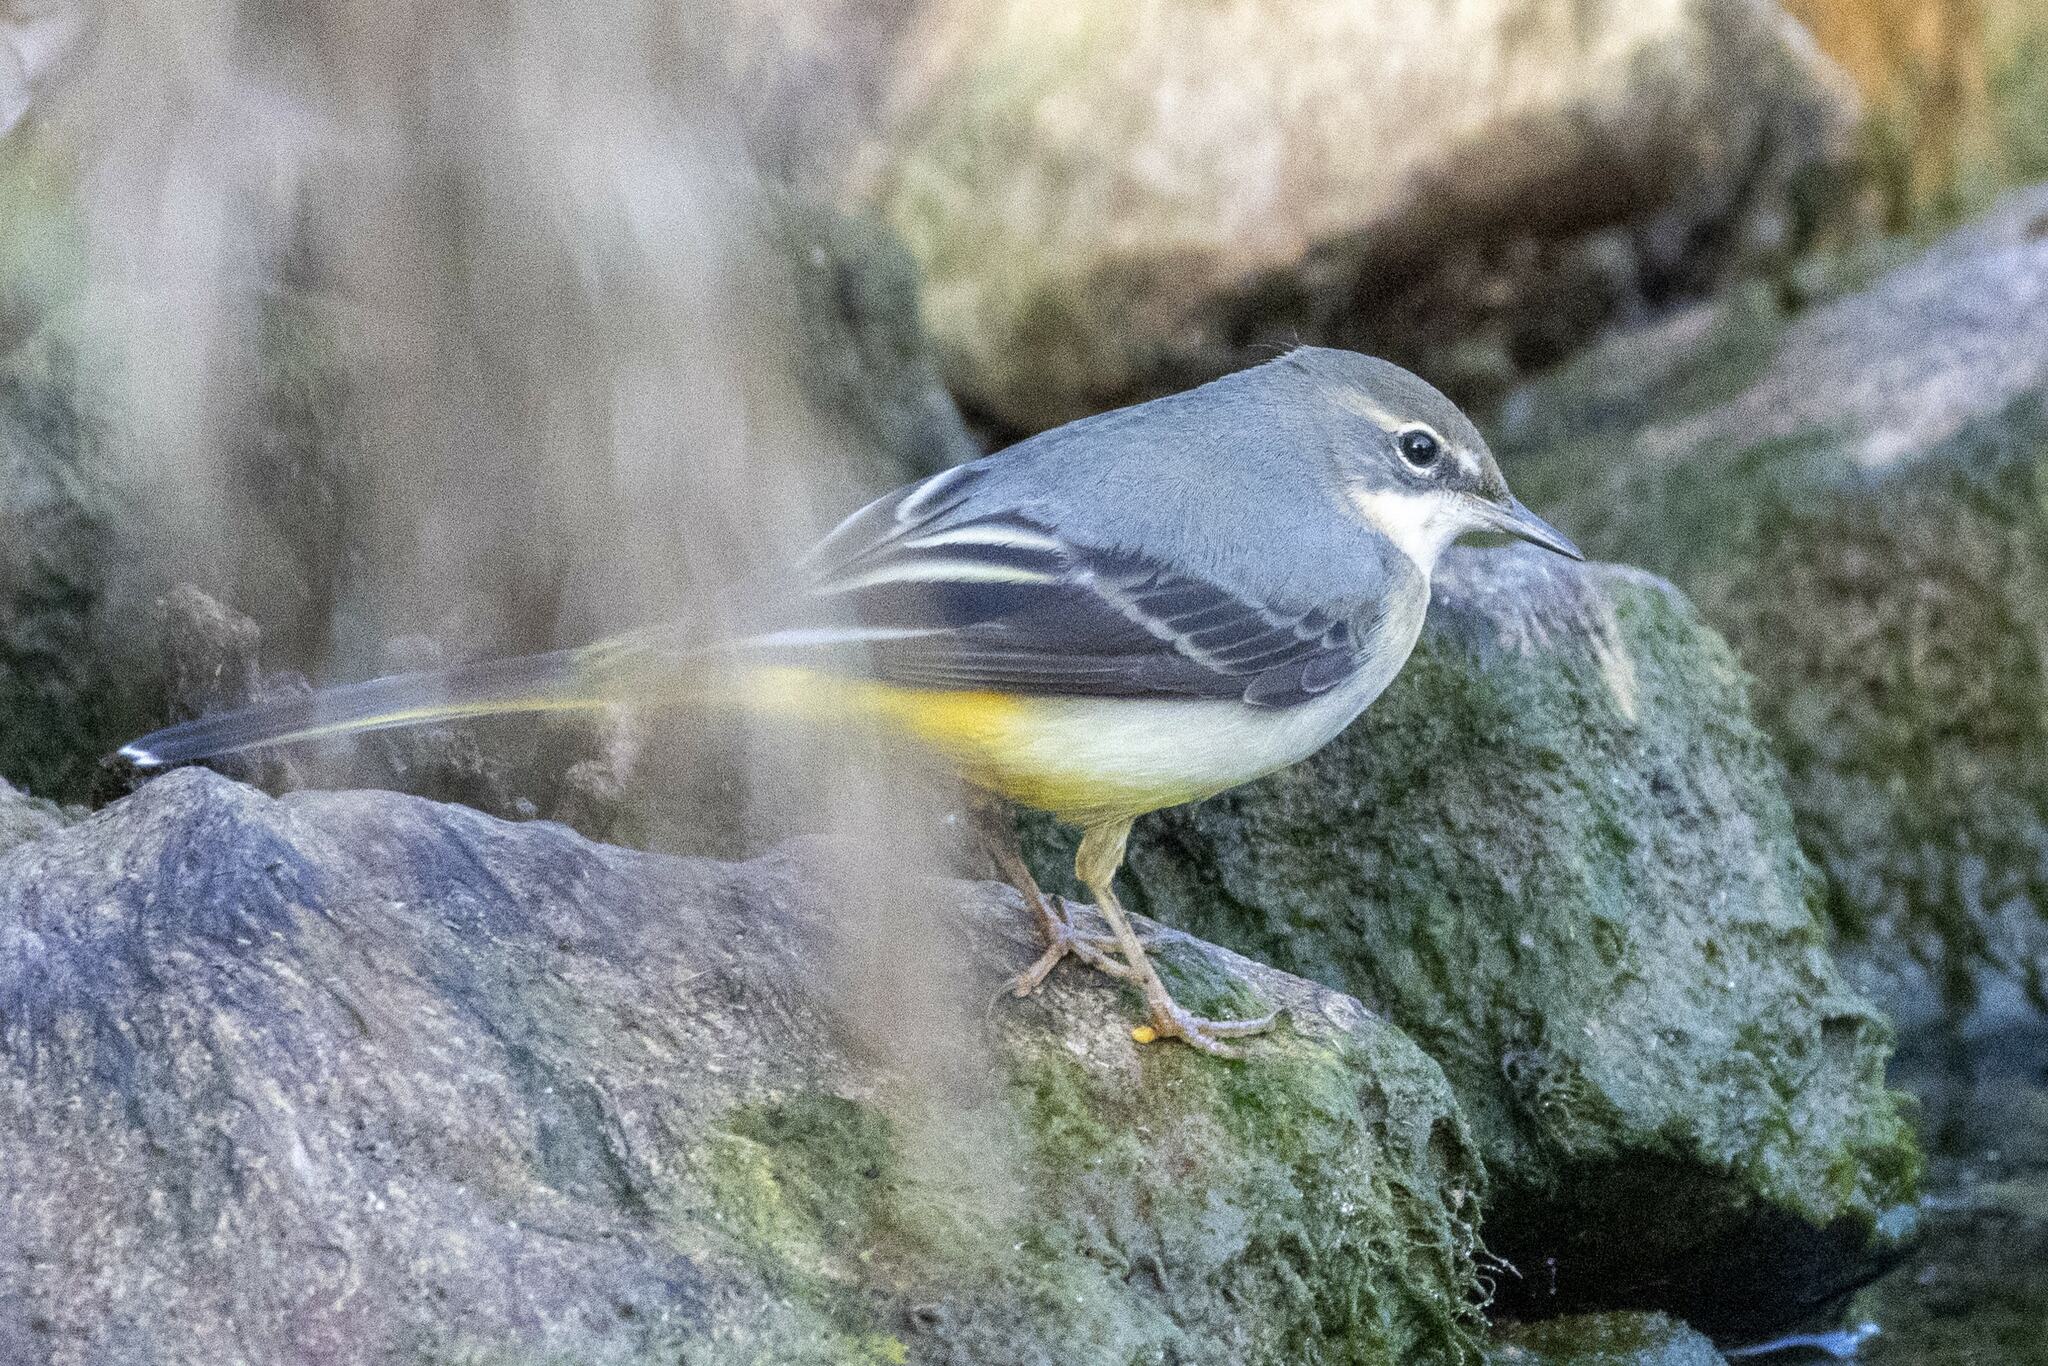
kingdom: Animalia
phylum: Chordata
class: Aves
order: Passeriformes
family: Motacillidae
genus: Motacilla
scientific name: Motacilla cinerea
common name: Grey wagtail
